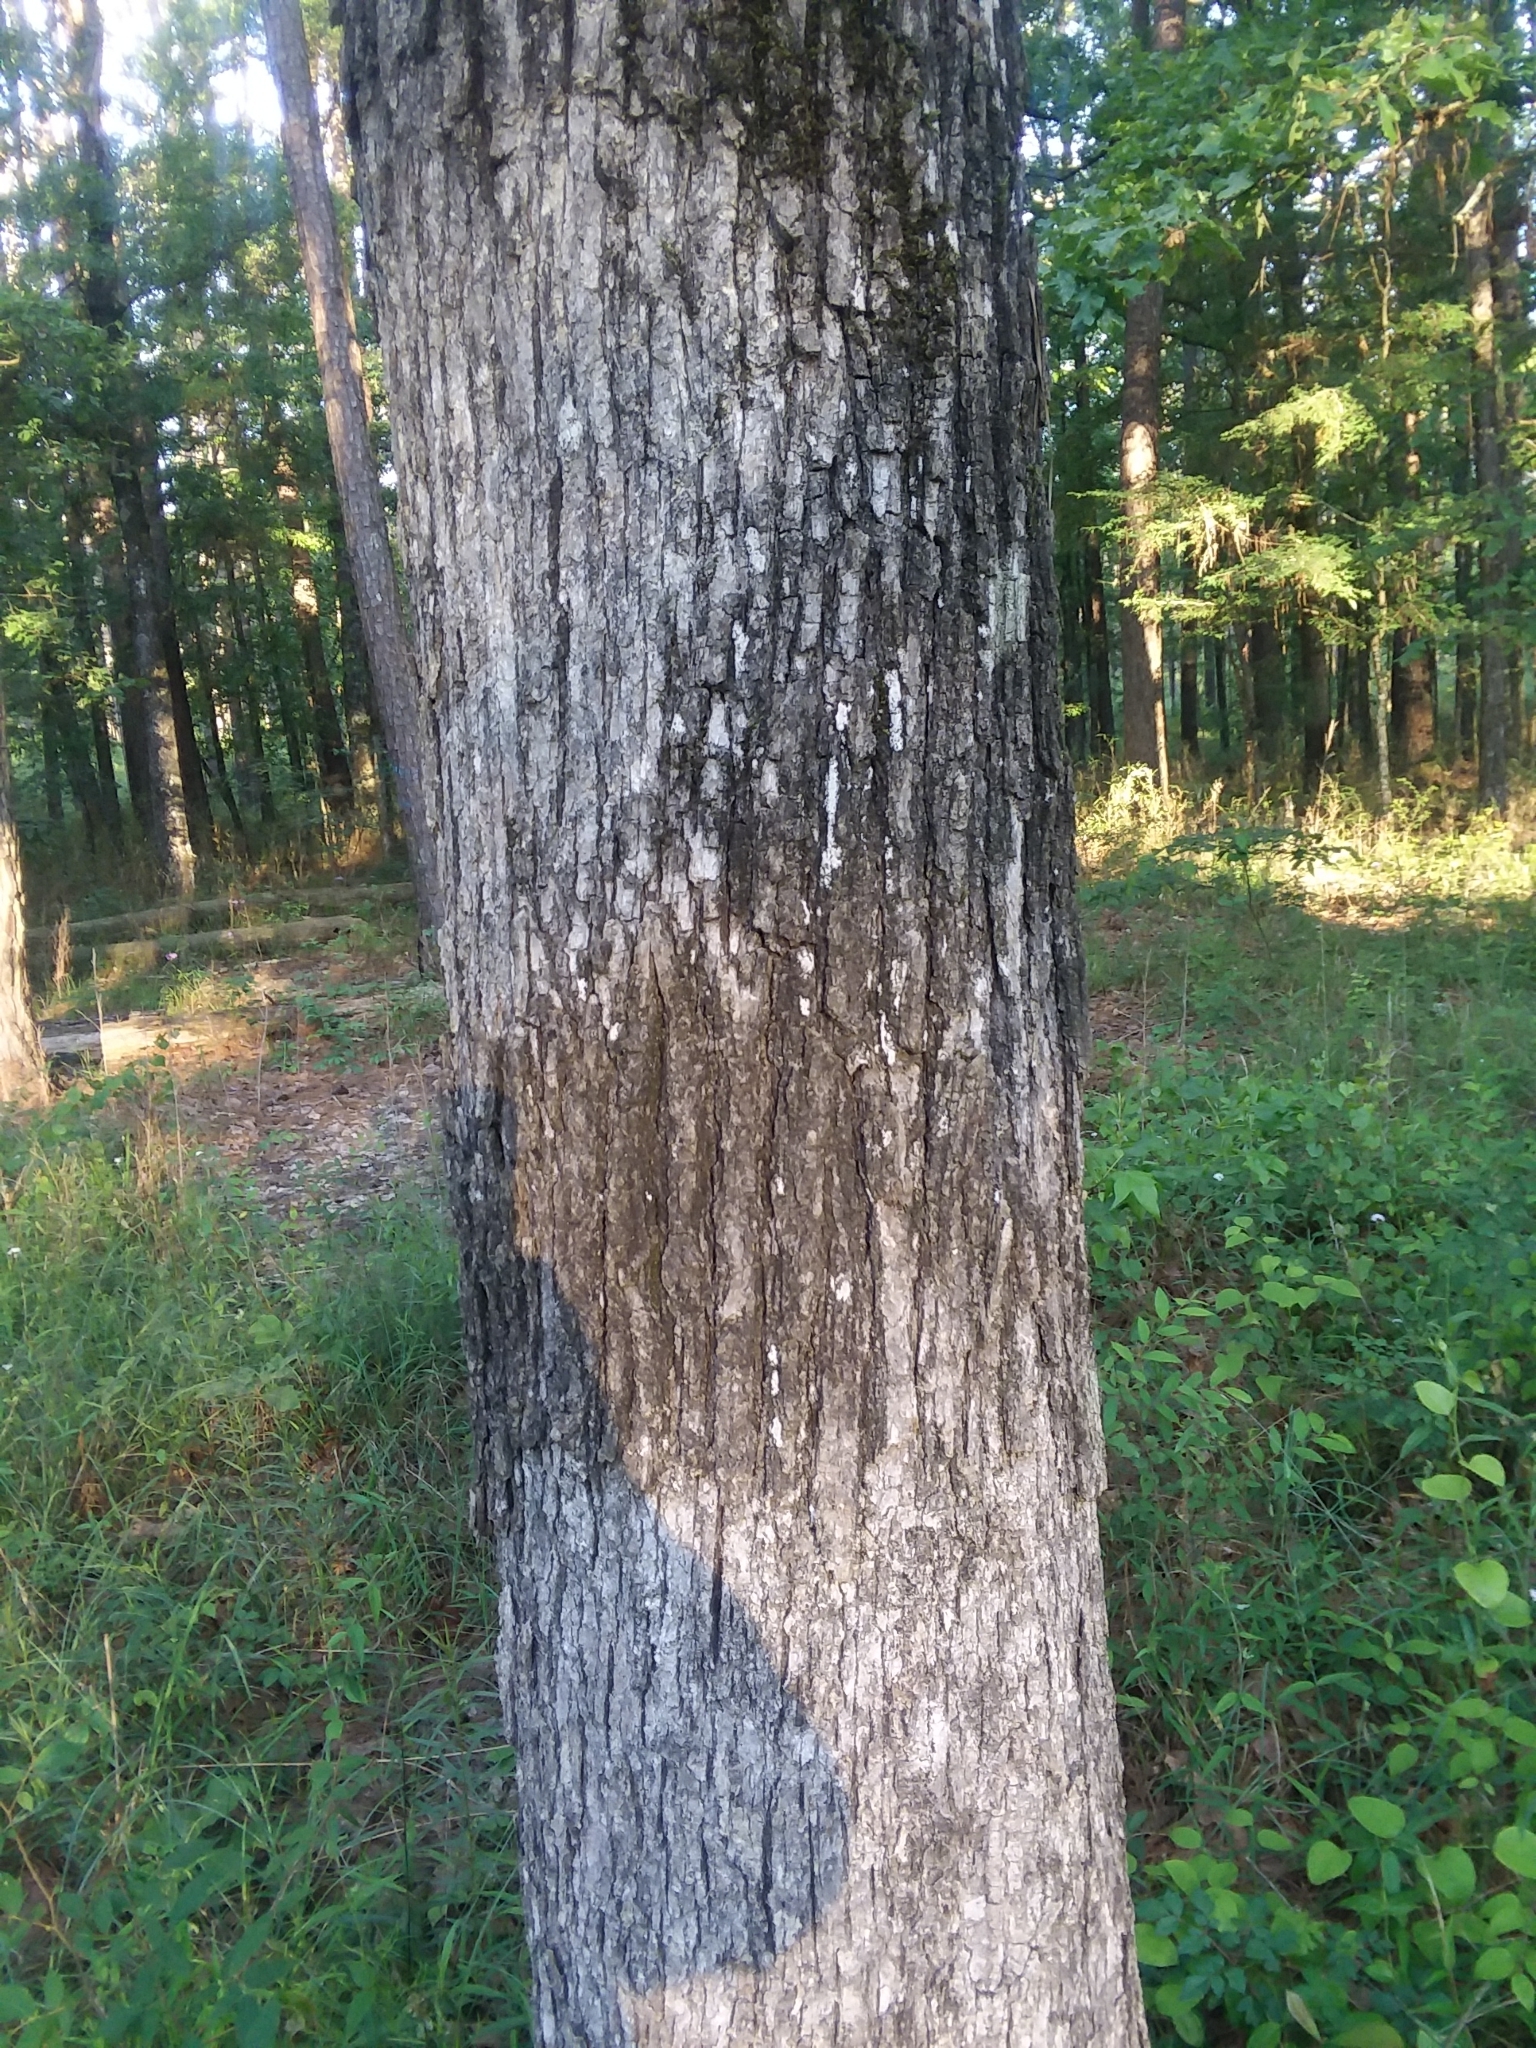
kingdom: Plantae
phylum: Tracheophyta
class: Magnoliopsida
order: Fagales
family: Fagaceae
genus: Quercus
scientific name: Quercus stellata
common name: Post oak
